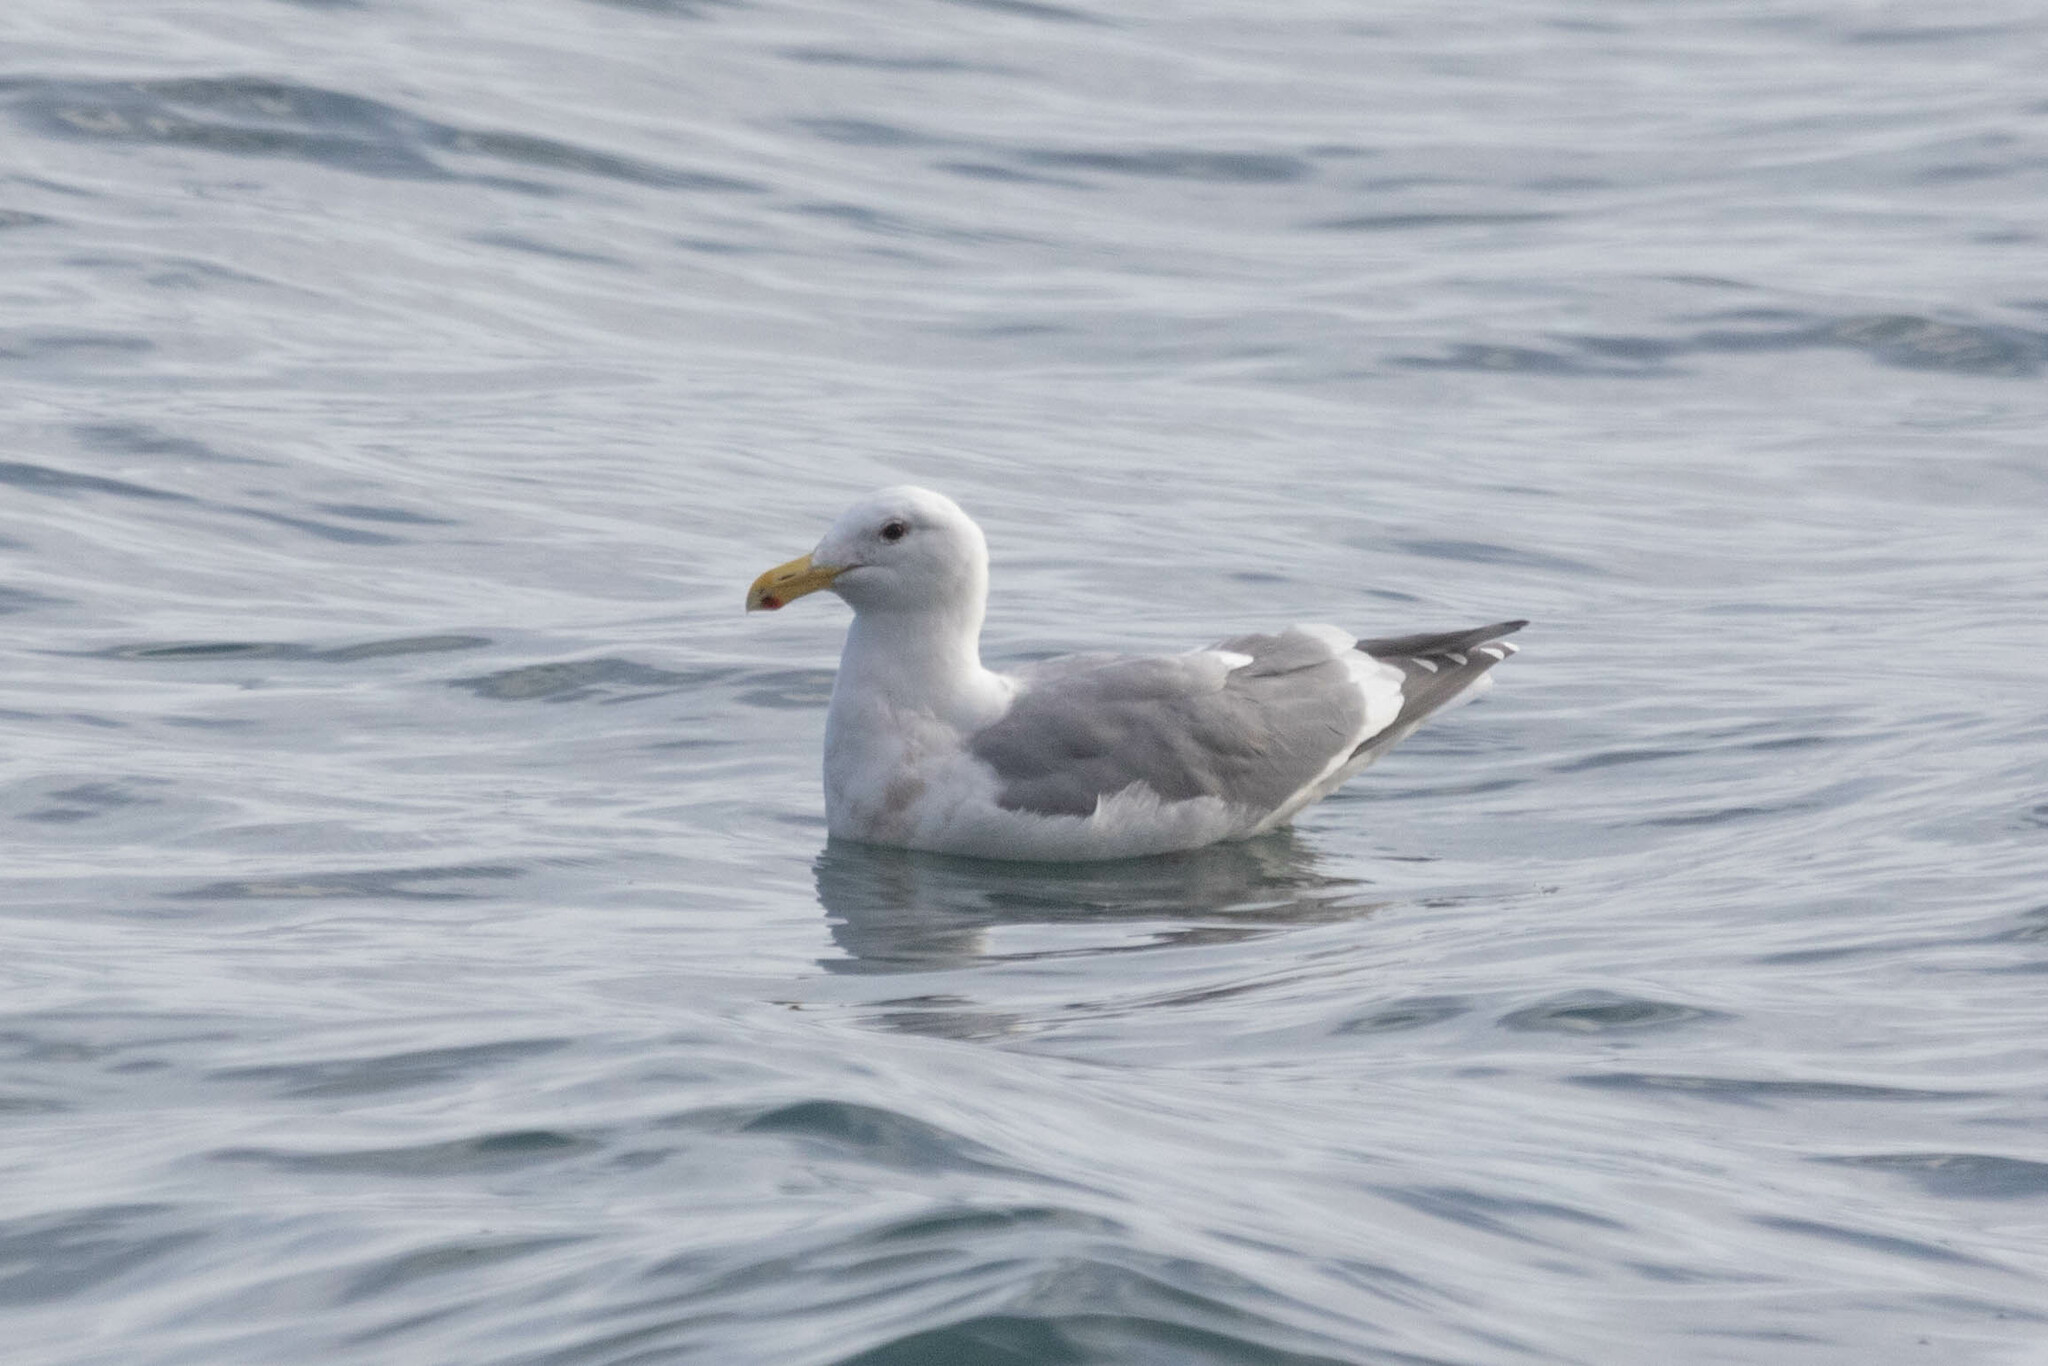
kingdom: Animalia
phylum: Chordata
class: Aves
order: Charadriiformes
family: Laridae
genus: Larus
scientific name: Larus
